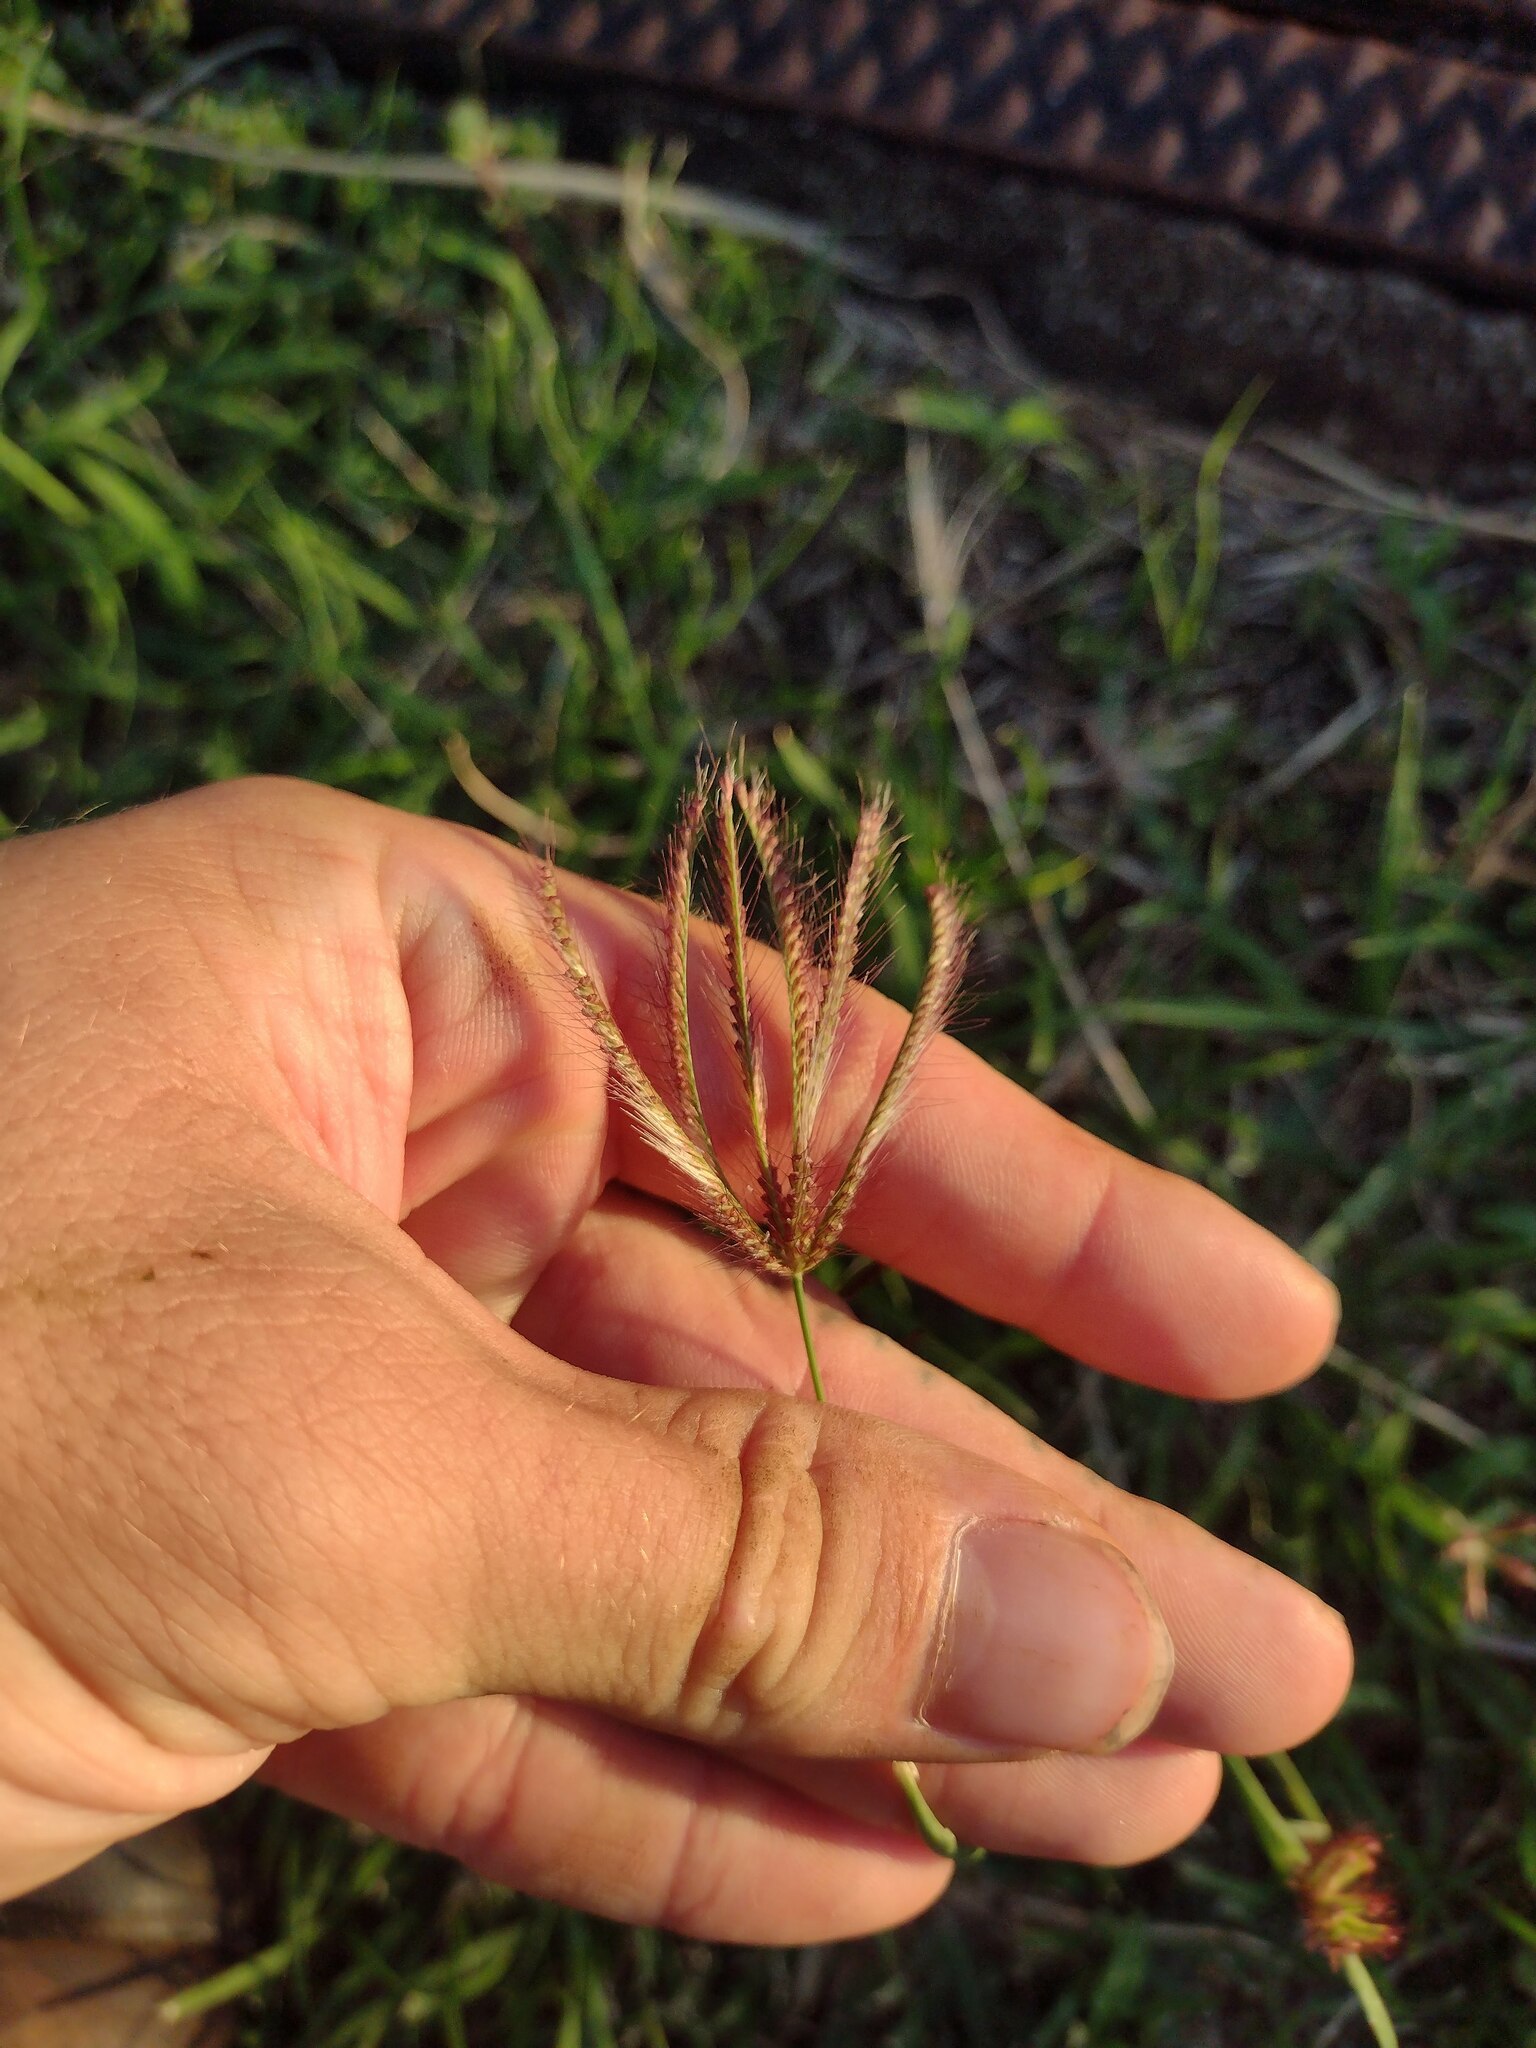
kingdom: Plantae
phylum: Tracheophyta
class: Liliopsida
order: Poales
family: Poaceae
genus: Chloris
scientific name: Chloris barbata
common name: Swollen fingergrass
